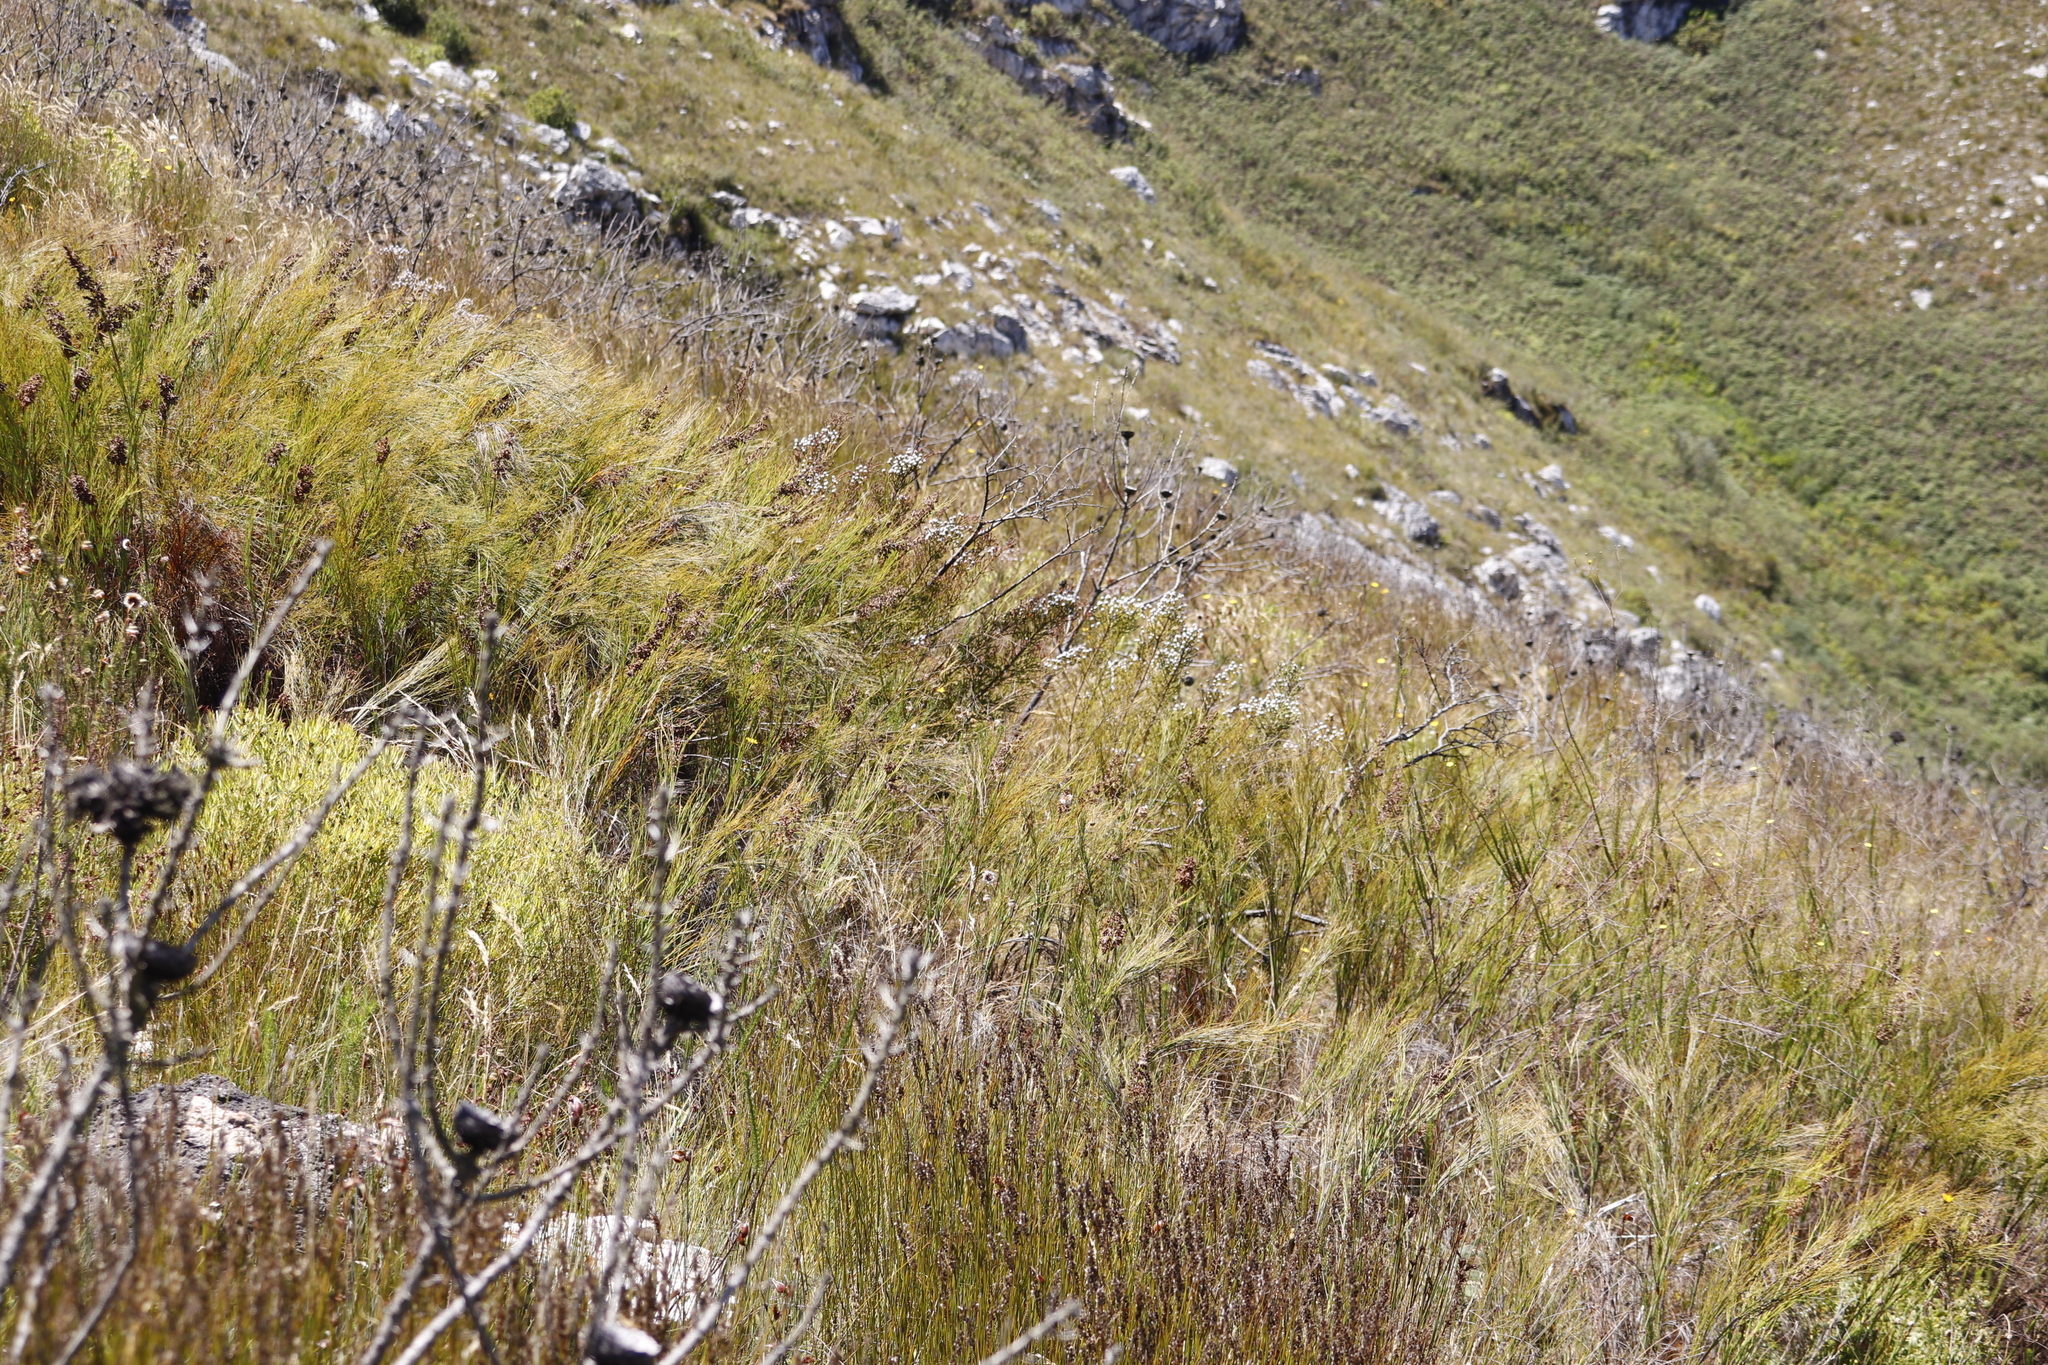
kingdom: Plantae
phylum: Tracheophyta
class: Liliopsida
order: Poales
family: Restionaceae
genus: Cannomois
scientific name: Cannomois virgata
